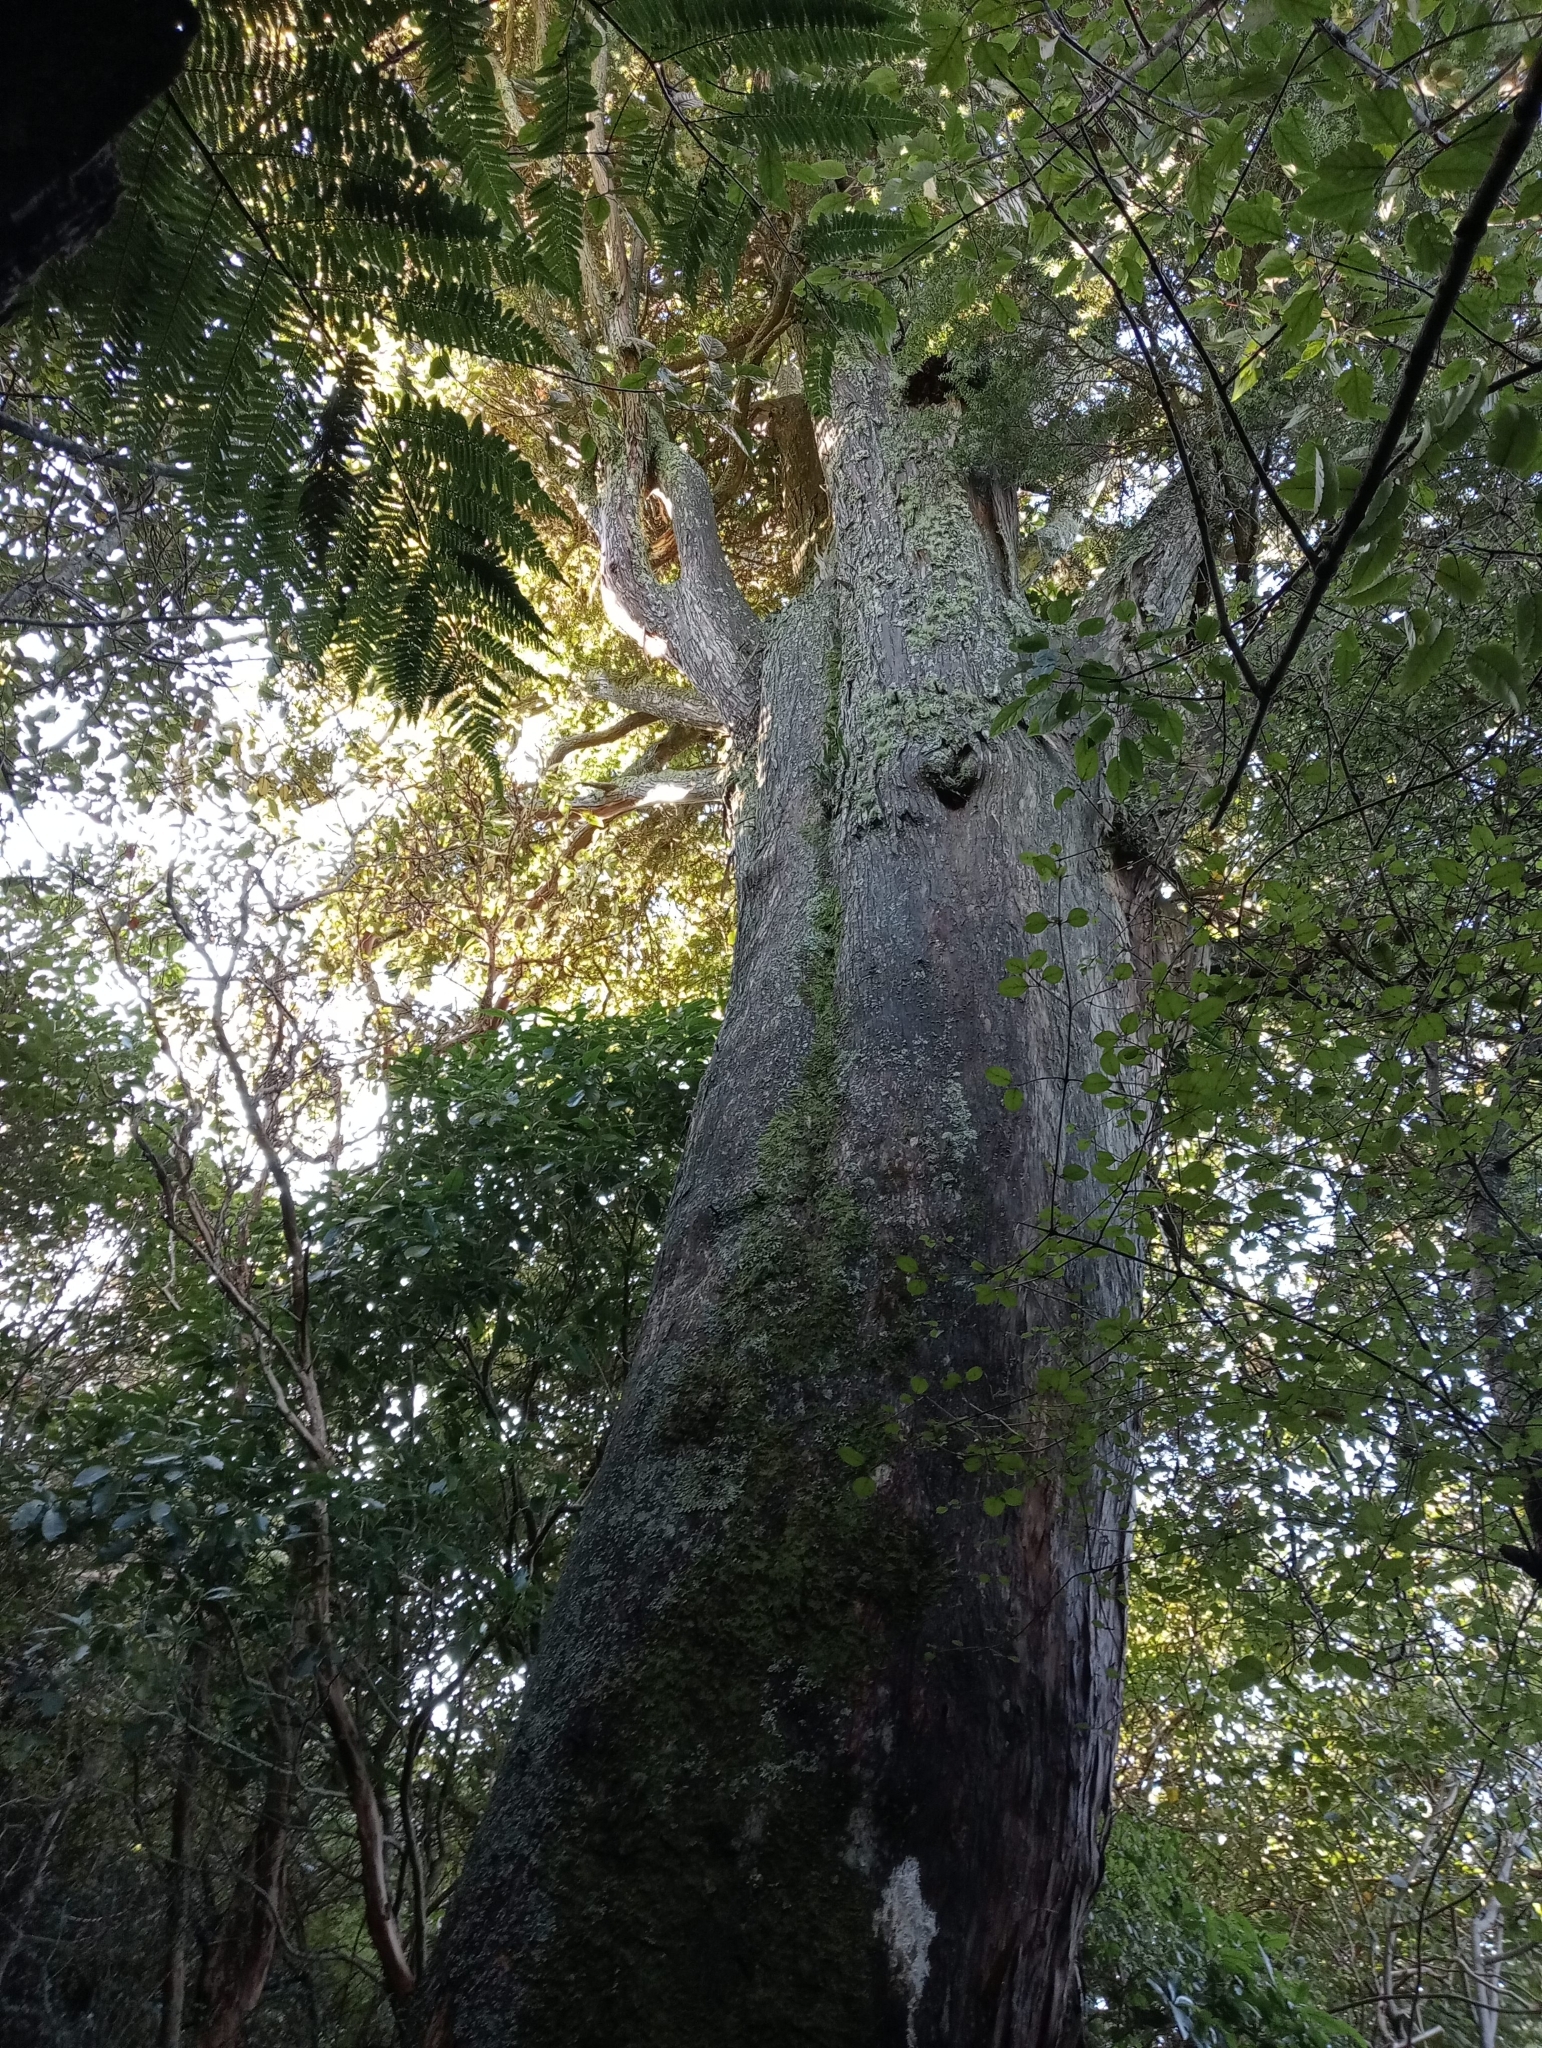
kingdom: Plantae
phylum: Tracheophyta
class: Pinopsida
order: Pinales
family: Podocarpaceae
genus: Podocarpus
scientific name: Podocarpus laetus
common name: Hall's totara
